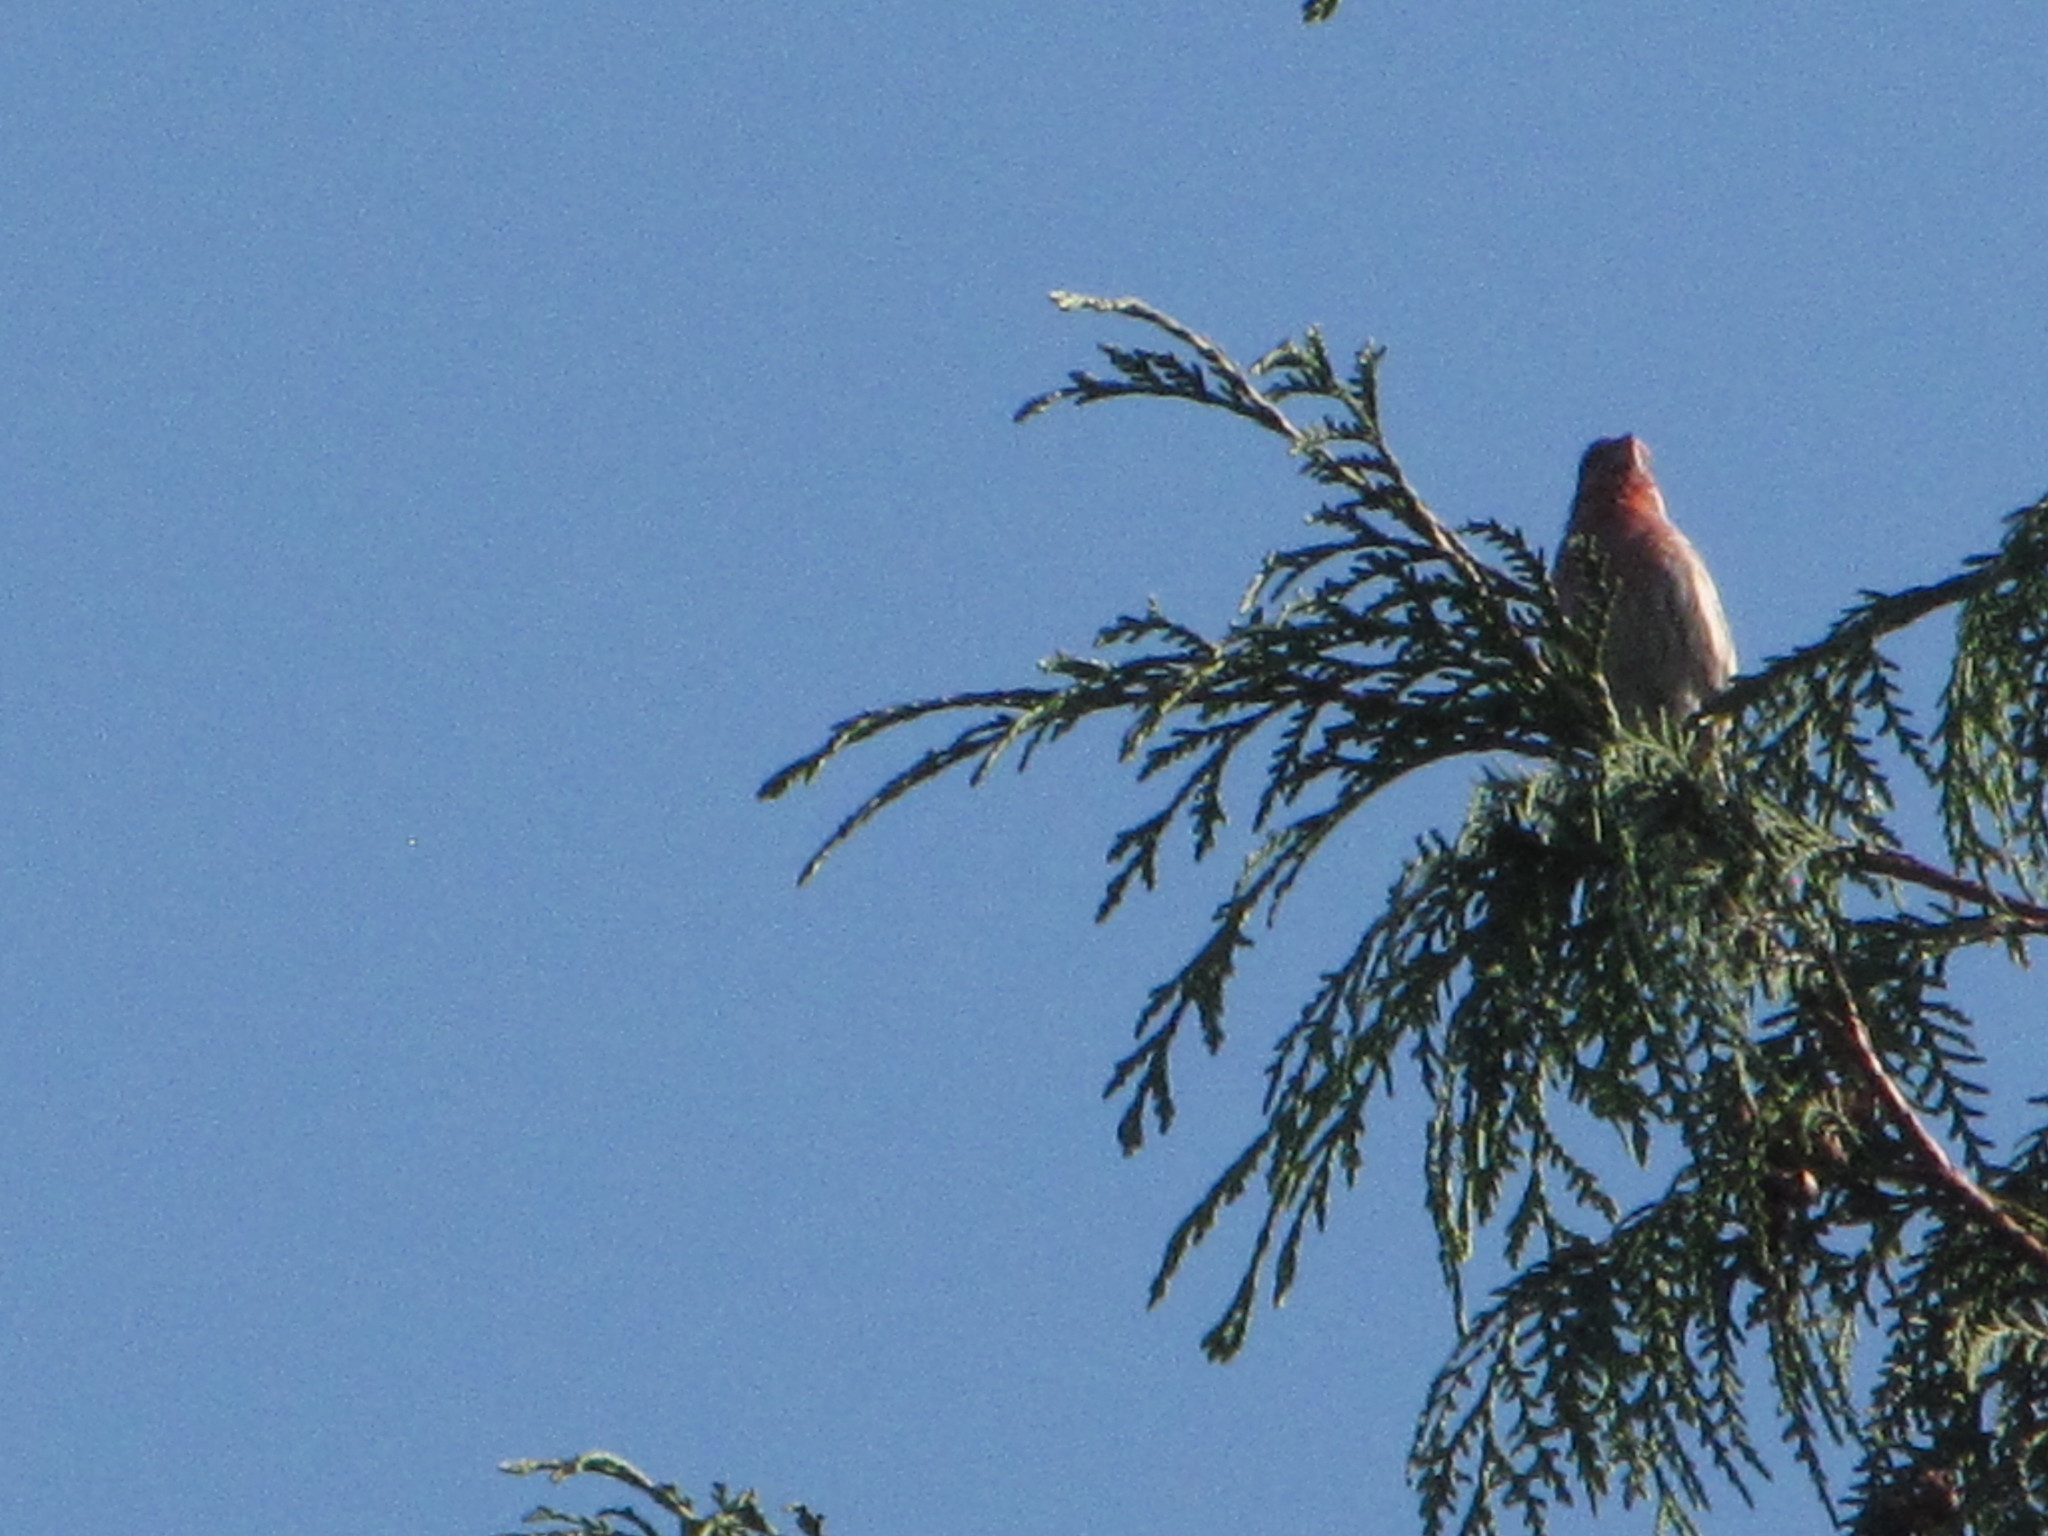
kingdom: Animalia
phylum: Chordata
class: Aves
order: Passeriformes
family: Fringillidae
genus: Haemorhous
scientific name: Haemorhous mexicanus
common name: House finch
